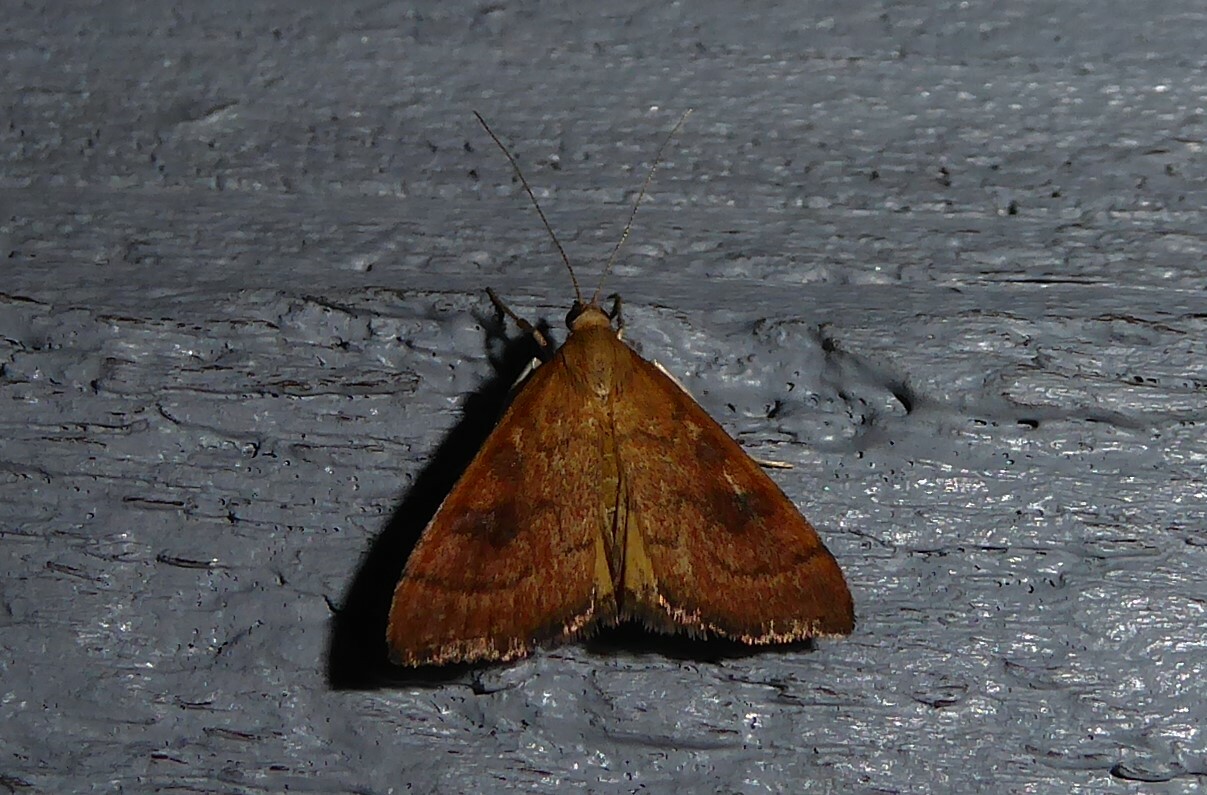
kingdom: Animalia
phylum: Arthropoda
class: Insecta
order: Lepidoptera
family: Crambidae
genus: Udea
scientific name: Udea Mnesictena flavidalis
